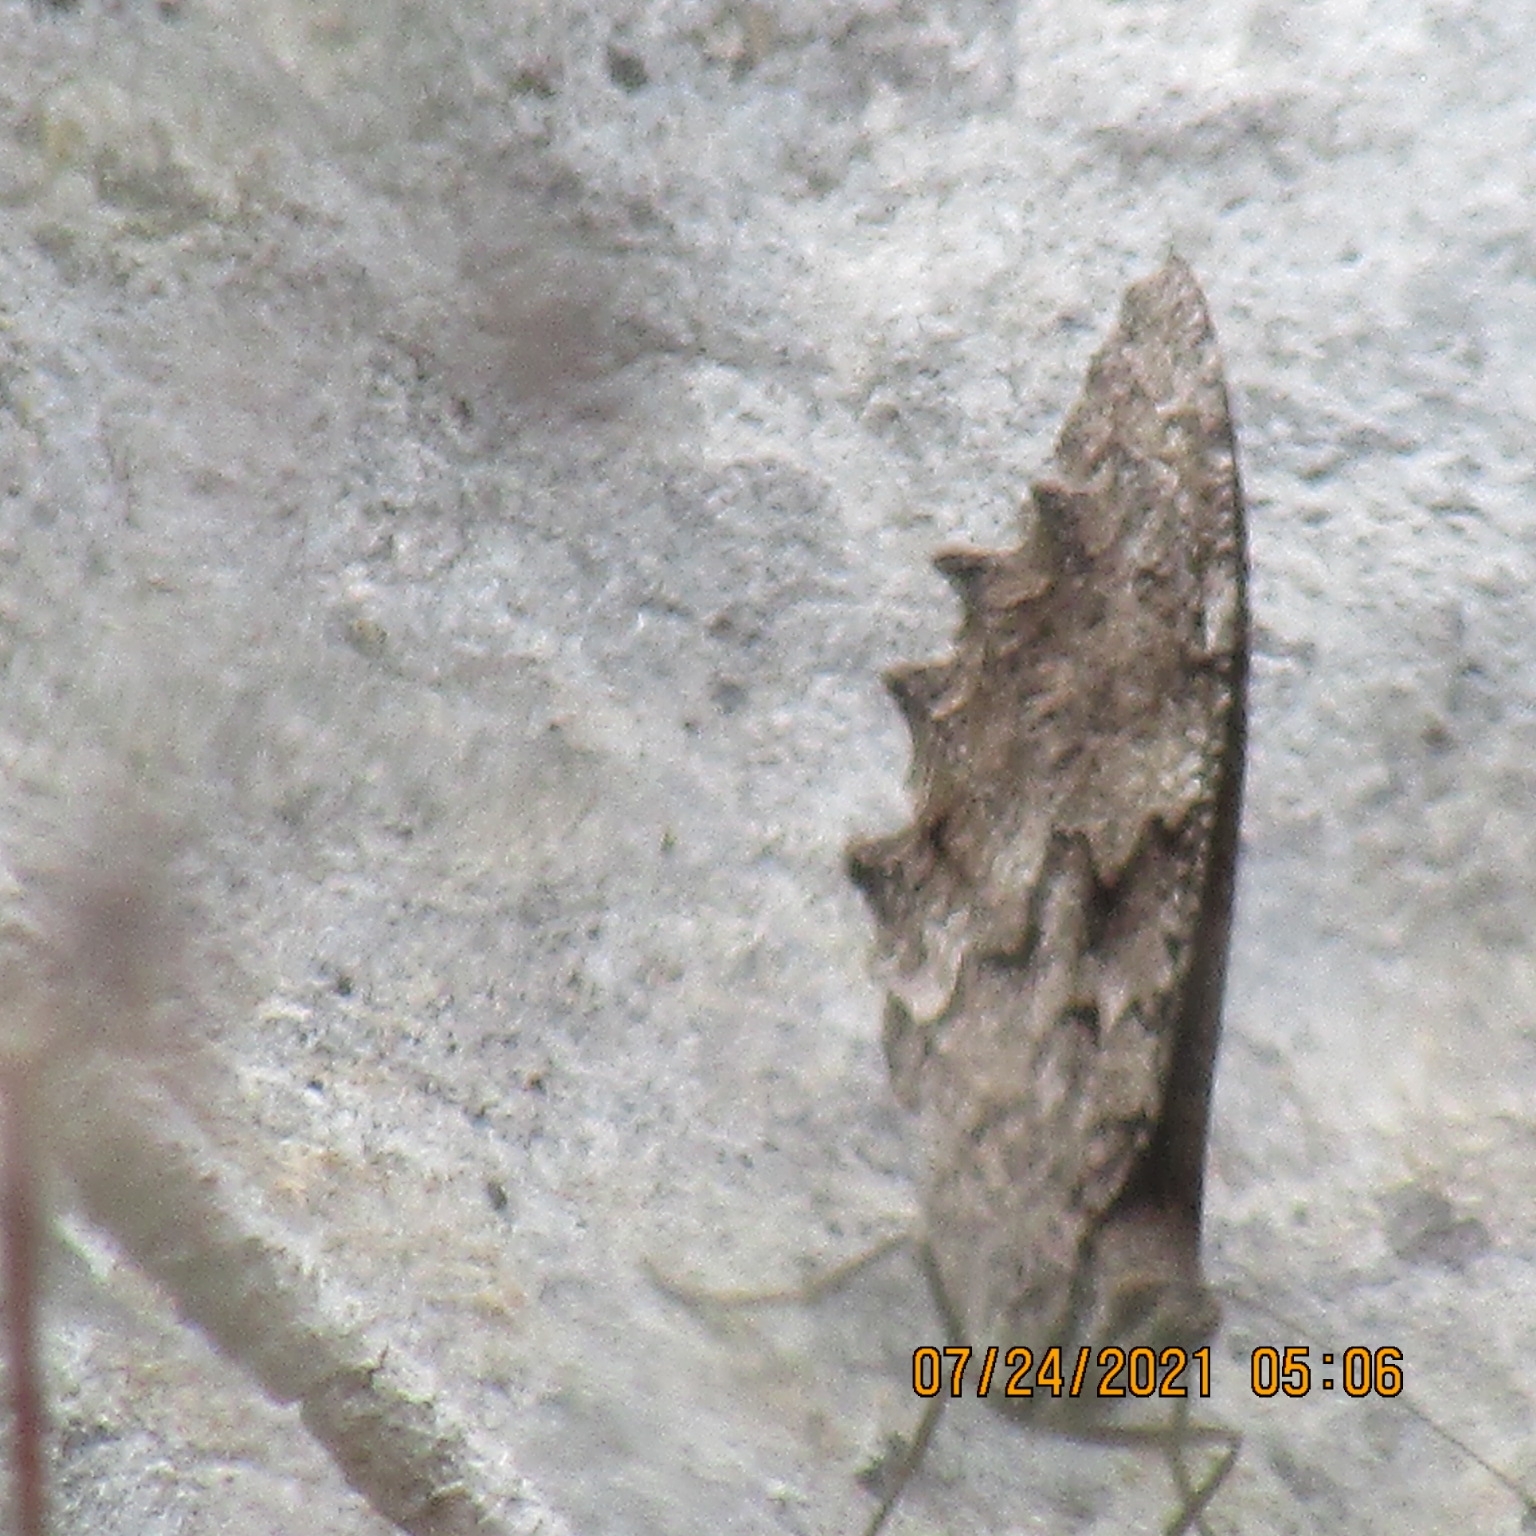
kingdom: Animalia
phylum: Arthropoda
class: Insecta
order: Lepidoptera
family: Nymphalidae
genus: Hipparchia
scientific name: Hipparchia fatua
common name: Freyer's grayling
